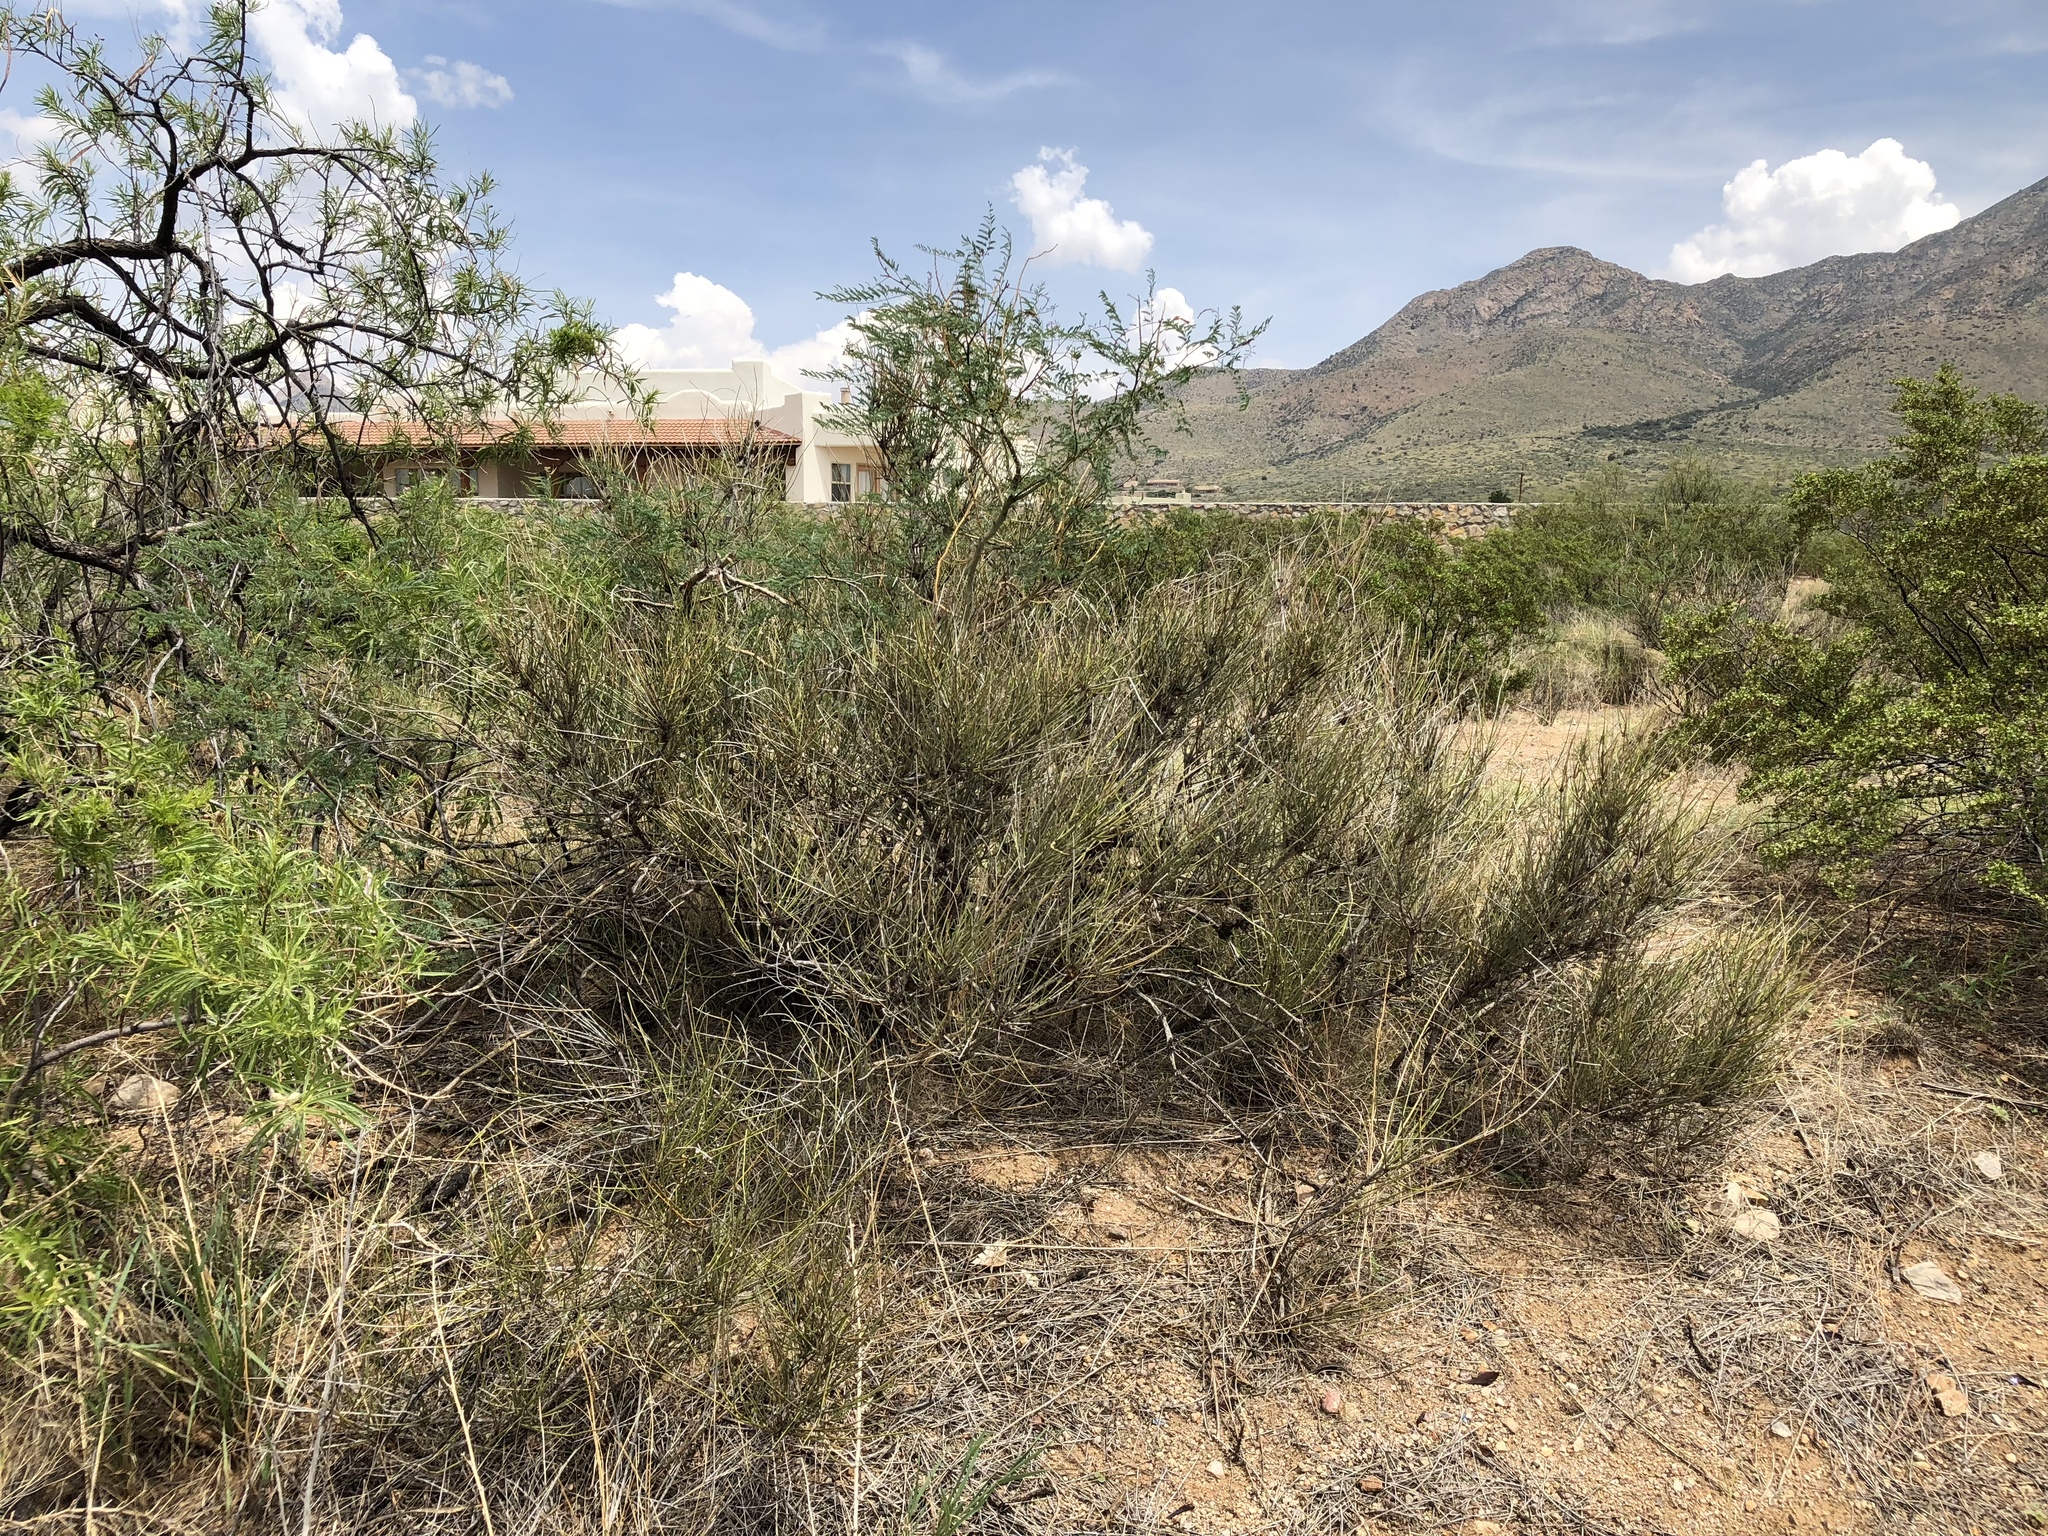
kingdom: Plantae
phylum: Tracheophyta
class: Gnetopsida
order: Ephedrales
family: Ephedraceae
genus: Ephedra
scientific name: Ephedra trifurca
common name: Mexican-tea
